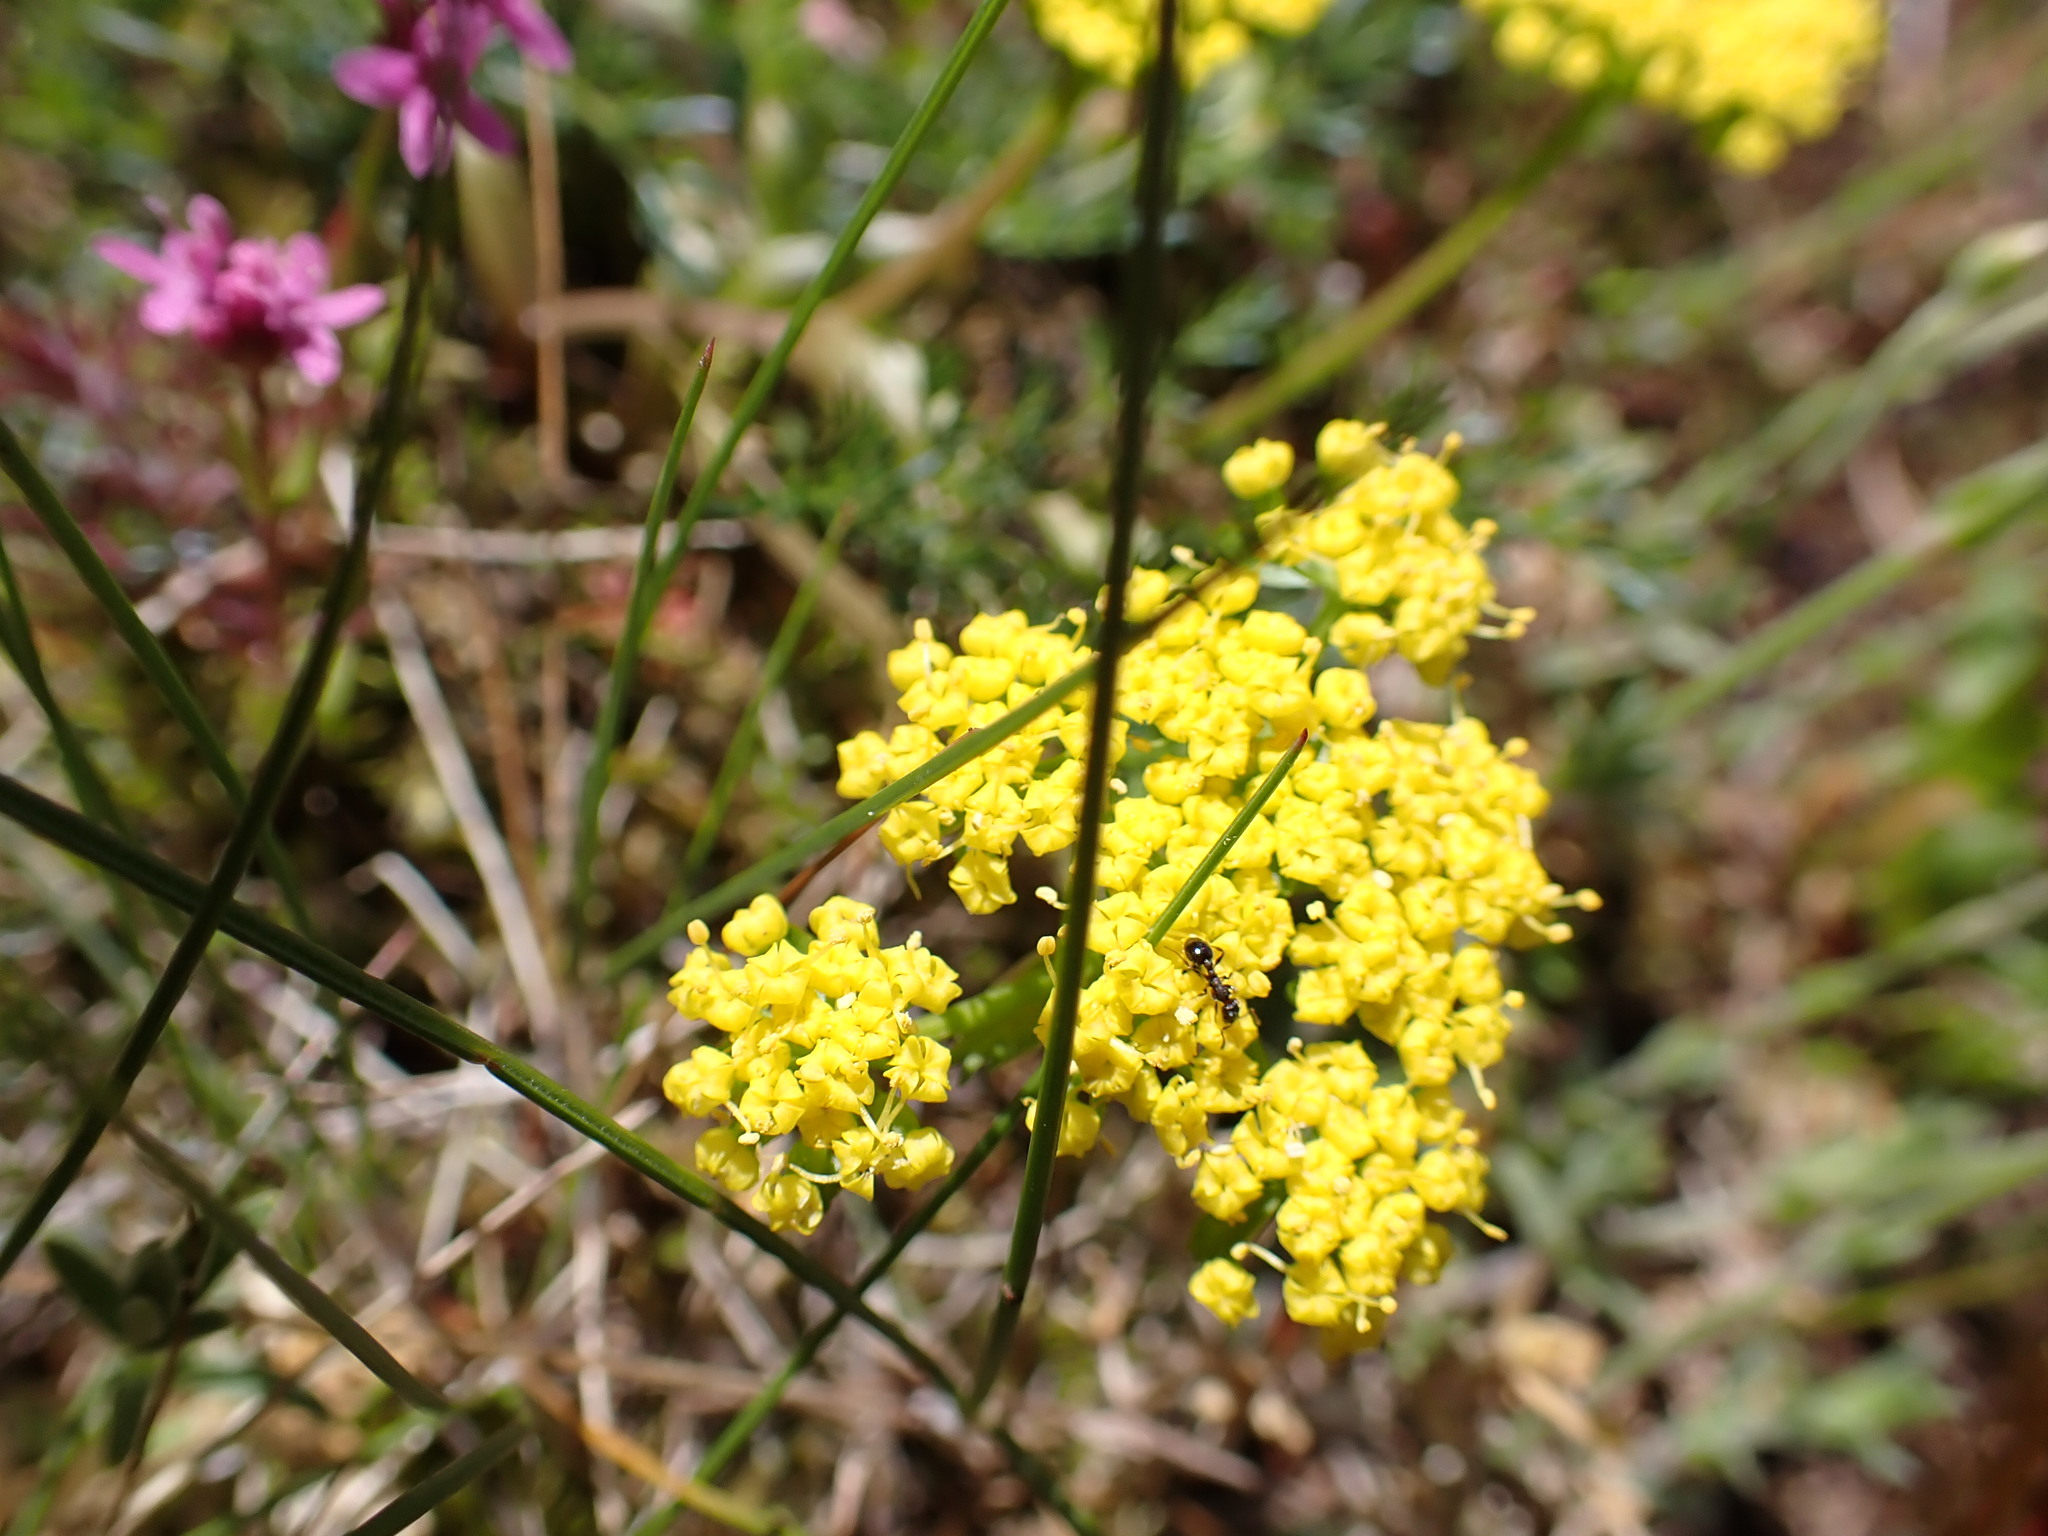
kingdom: Plantae
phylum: Tracheophyta
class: Magnoliopsida
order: Apiales
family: Apiaceae
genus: Lomatium
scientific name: Lomatium utriculatum
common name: Fine-leaf desert-parsley
